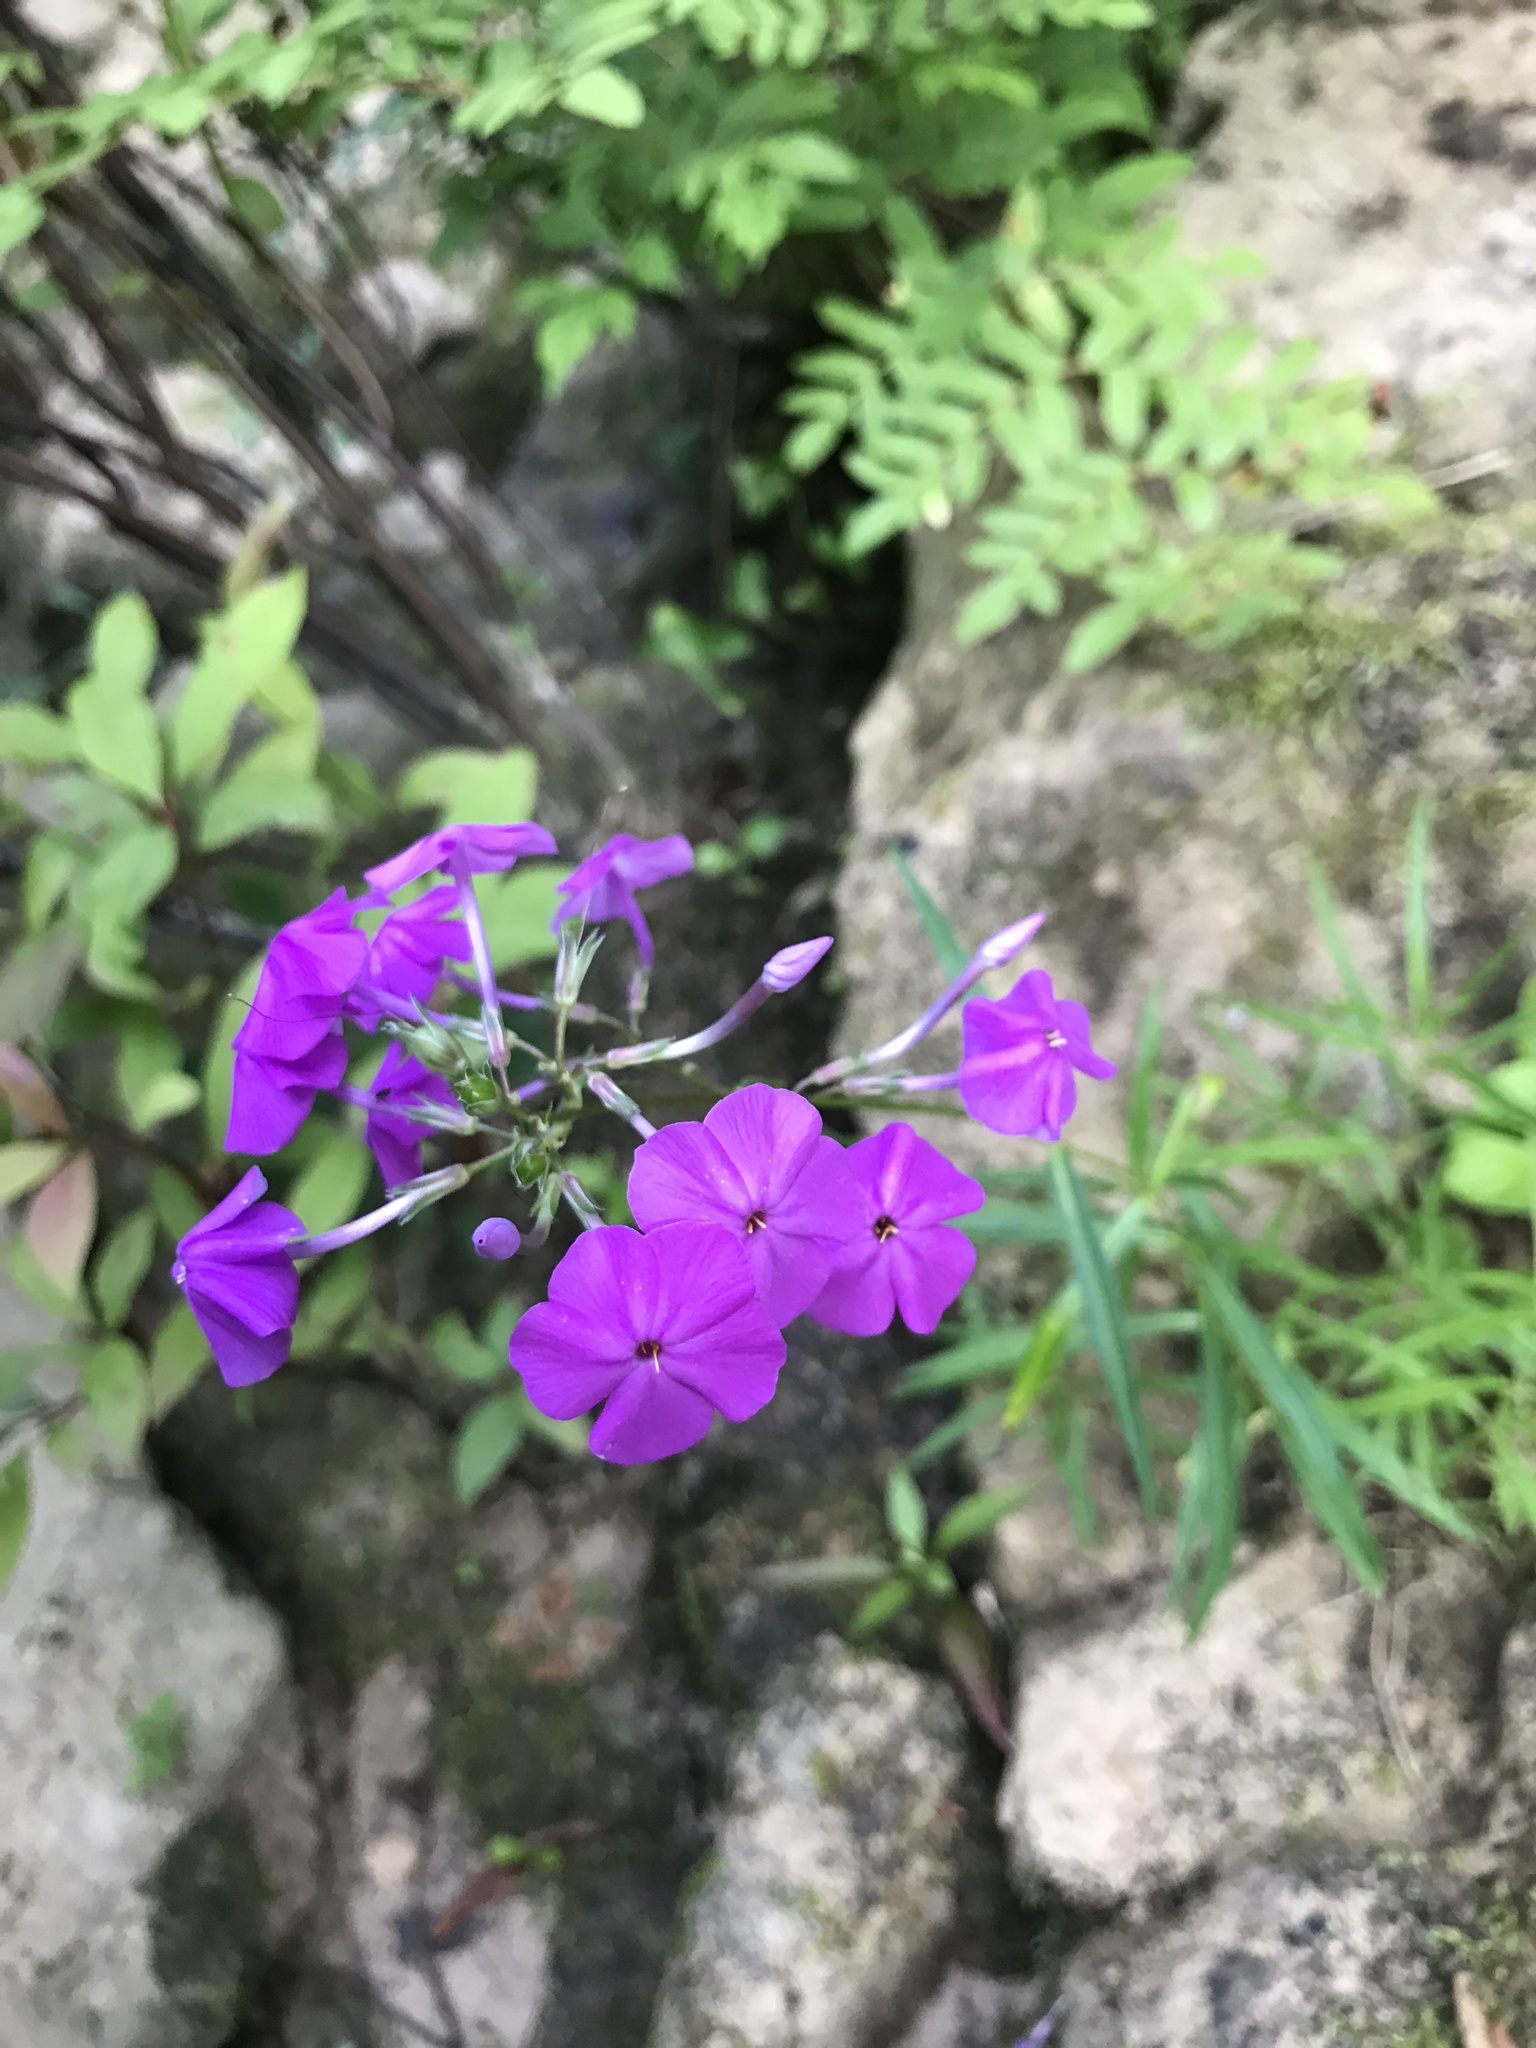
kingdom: Plantae
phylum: Tracheophyta
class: Magnoliopsida
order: Ericales
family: Polemoniaceae
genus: Phlox
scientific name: Phlox carolina
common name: Thick-leaf phlox
